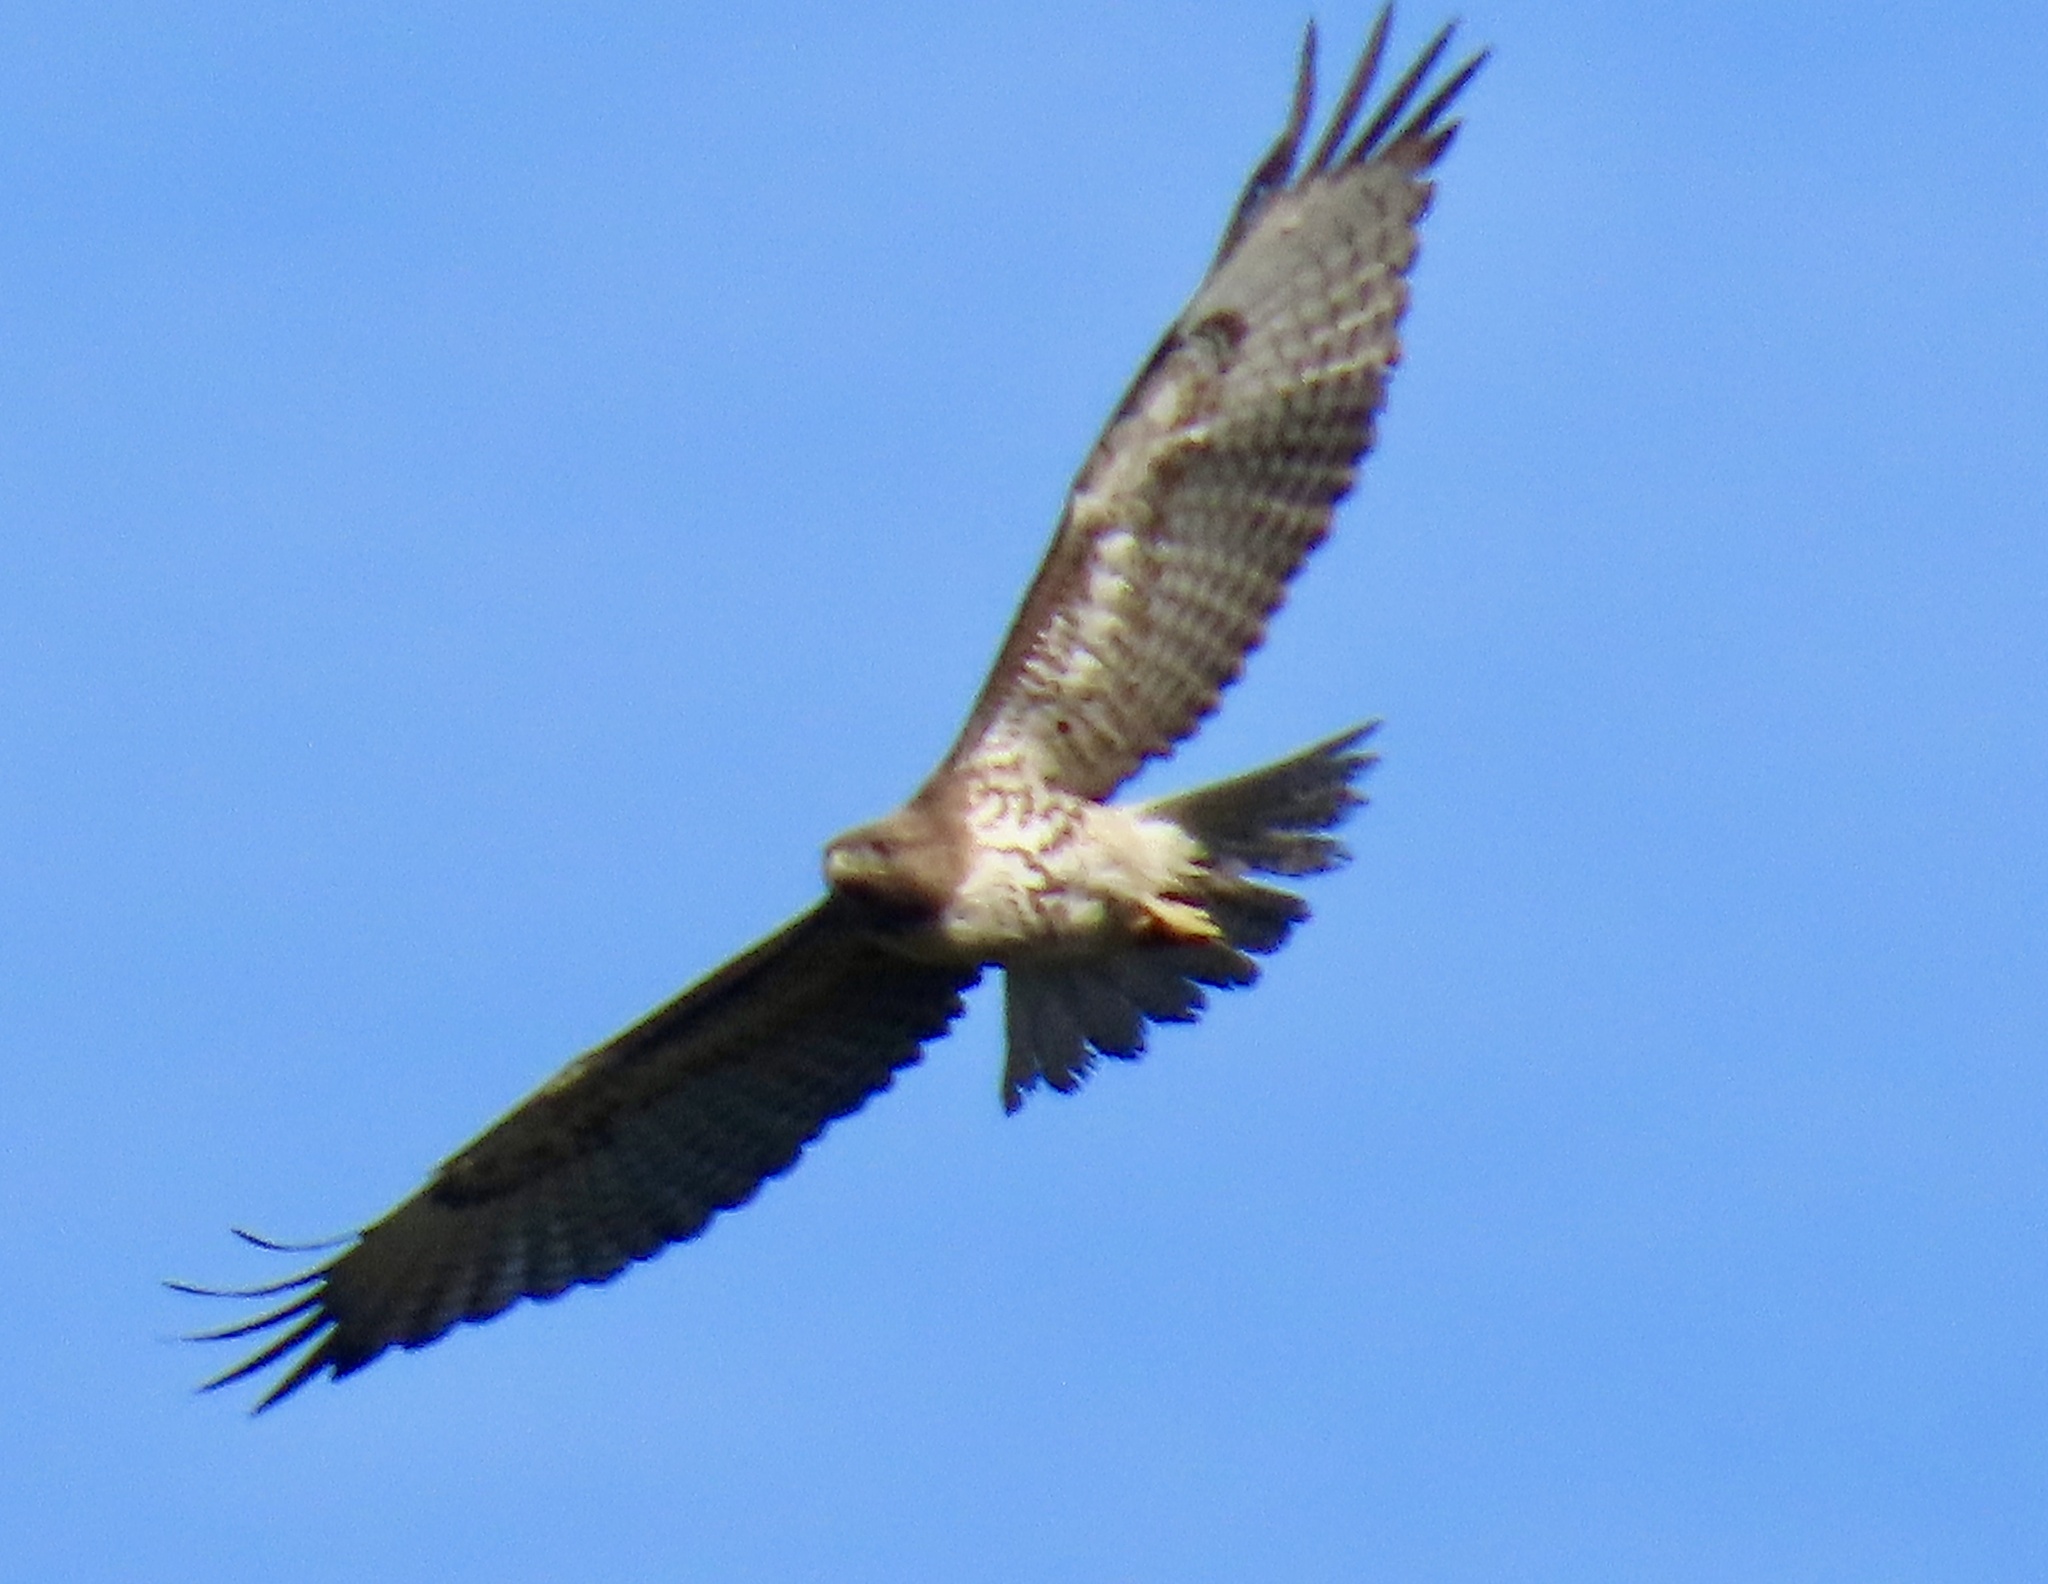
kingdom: Animalia
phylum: Chordata
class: Aves
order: Accipitriformes
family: Accipitridae
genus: Buteo
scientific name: Buteo jamaicensis
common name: Red-tailed hawk
